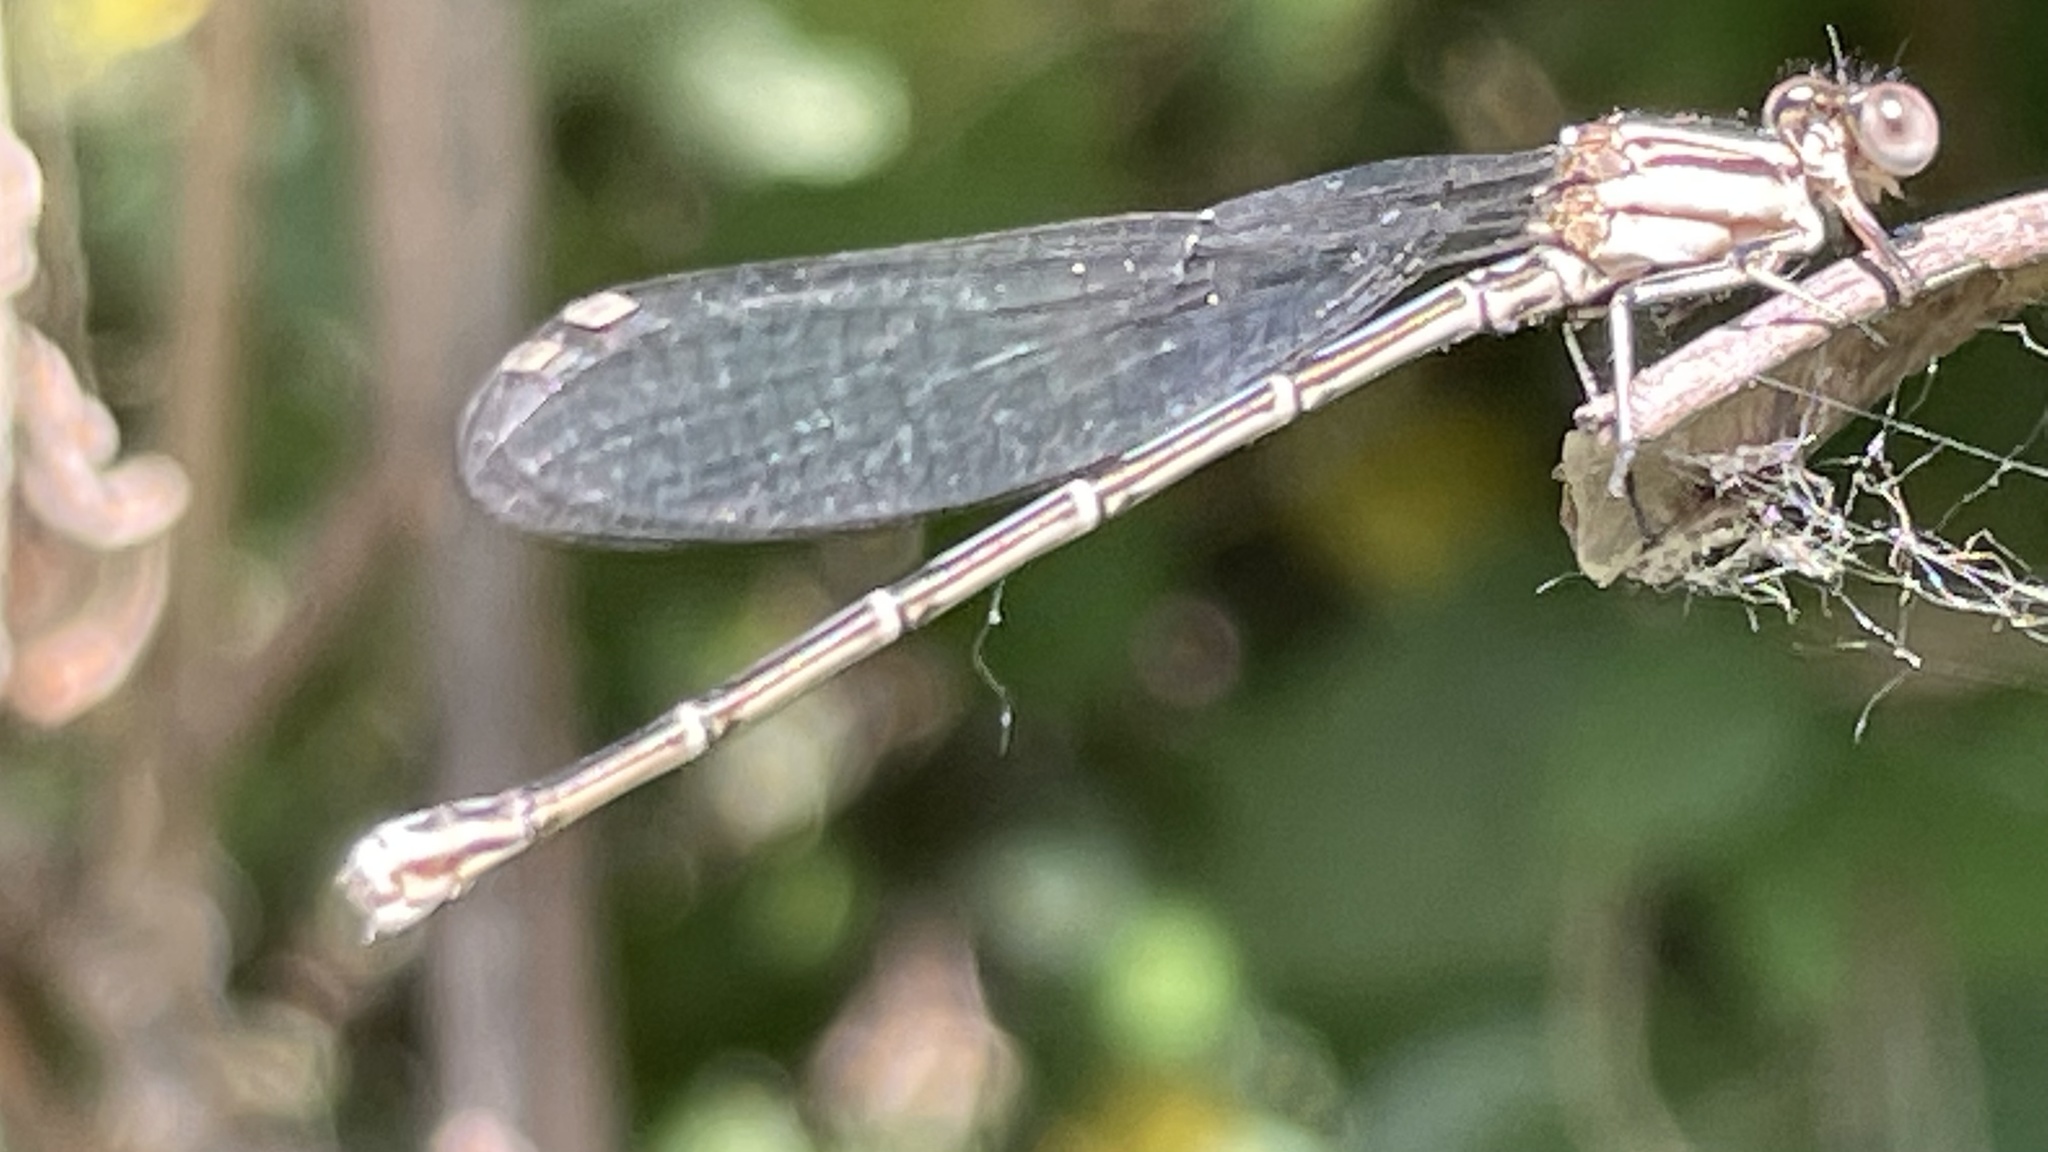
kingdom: Animalia
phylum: Arthropoda
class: Insecta
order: Odonata
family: Coenagrionidae
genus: Argia
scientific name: Argia translata
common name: Dusky dancer
